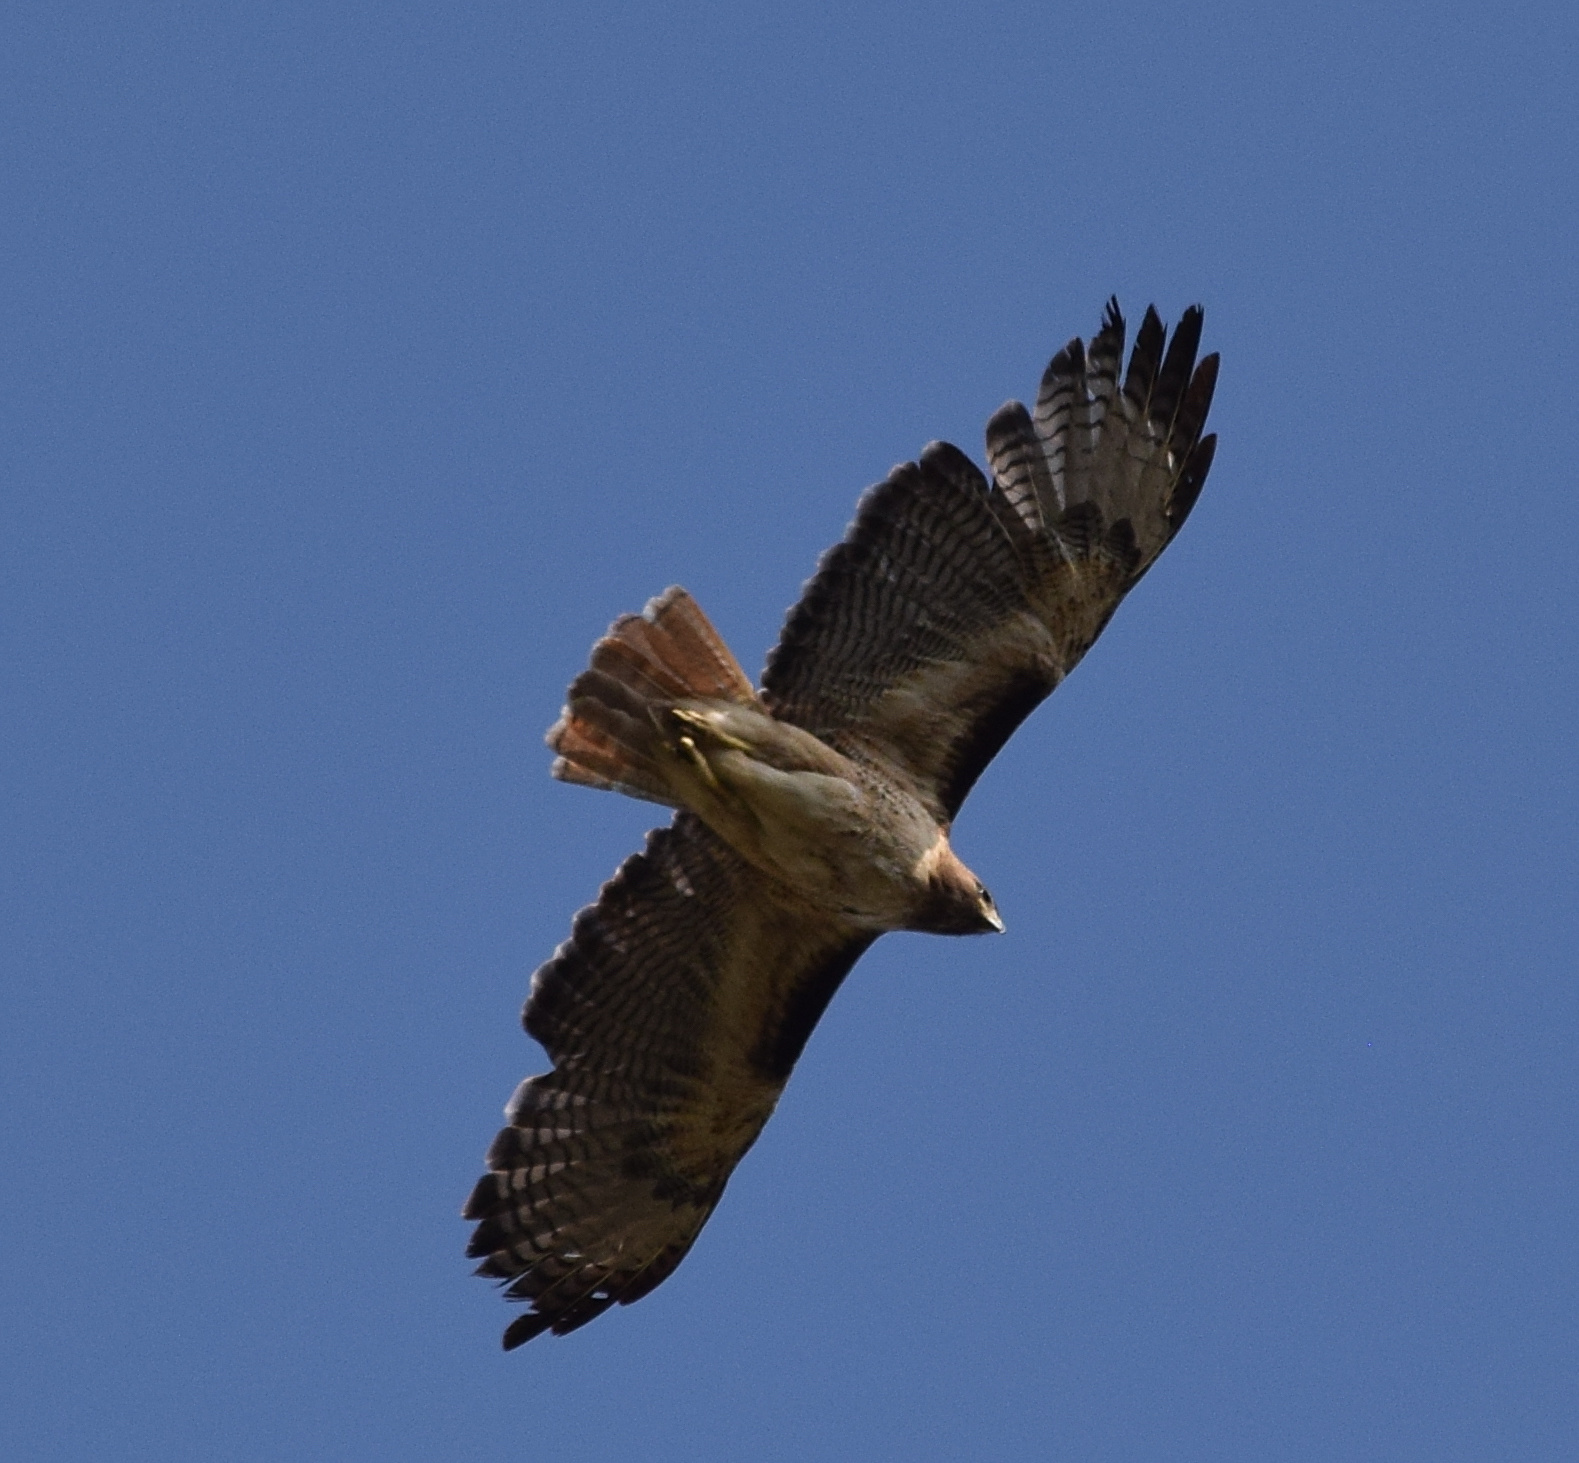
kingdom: Animalia
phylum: Chordata
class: Aves
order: Accipitriformes
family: Accipitridae
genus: Buteo
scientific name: Buteo jamaicensis
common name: Red-tailed hawk
